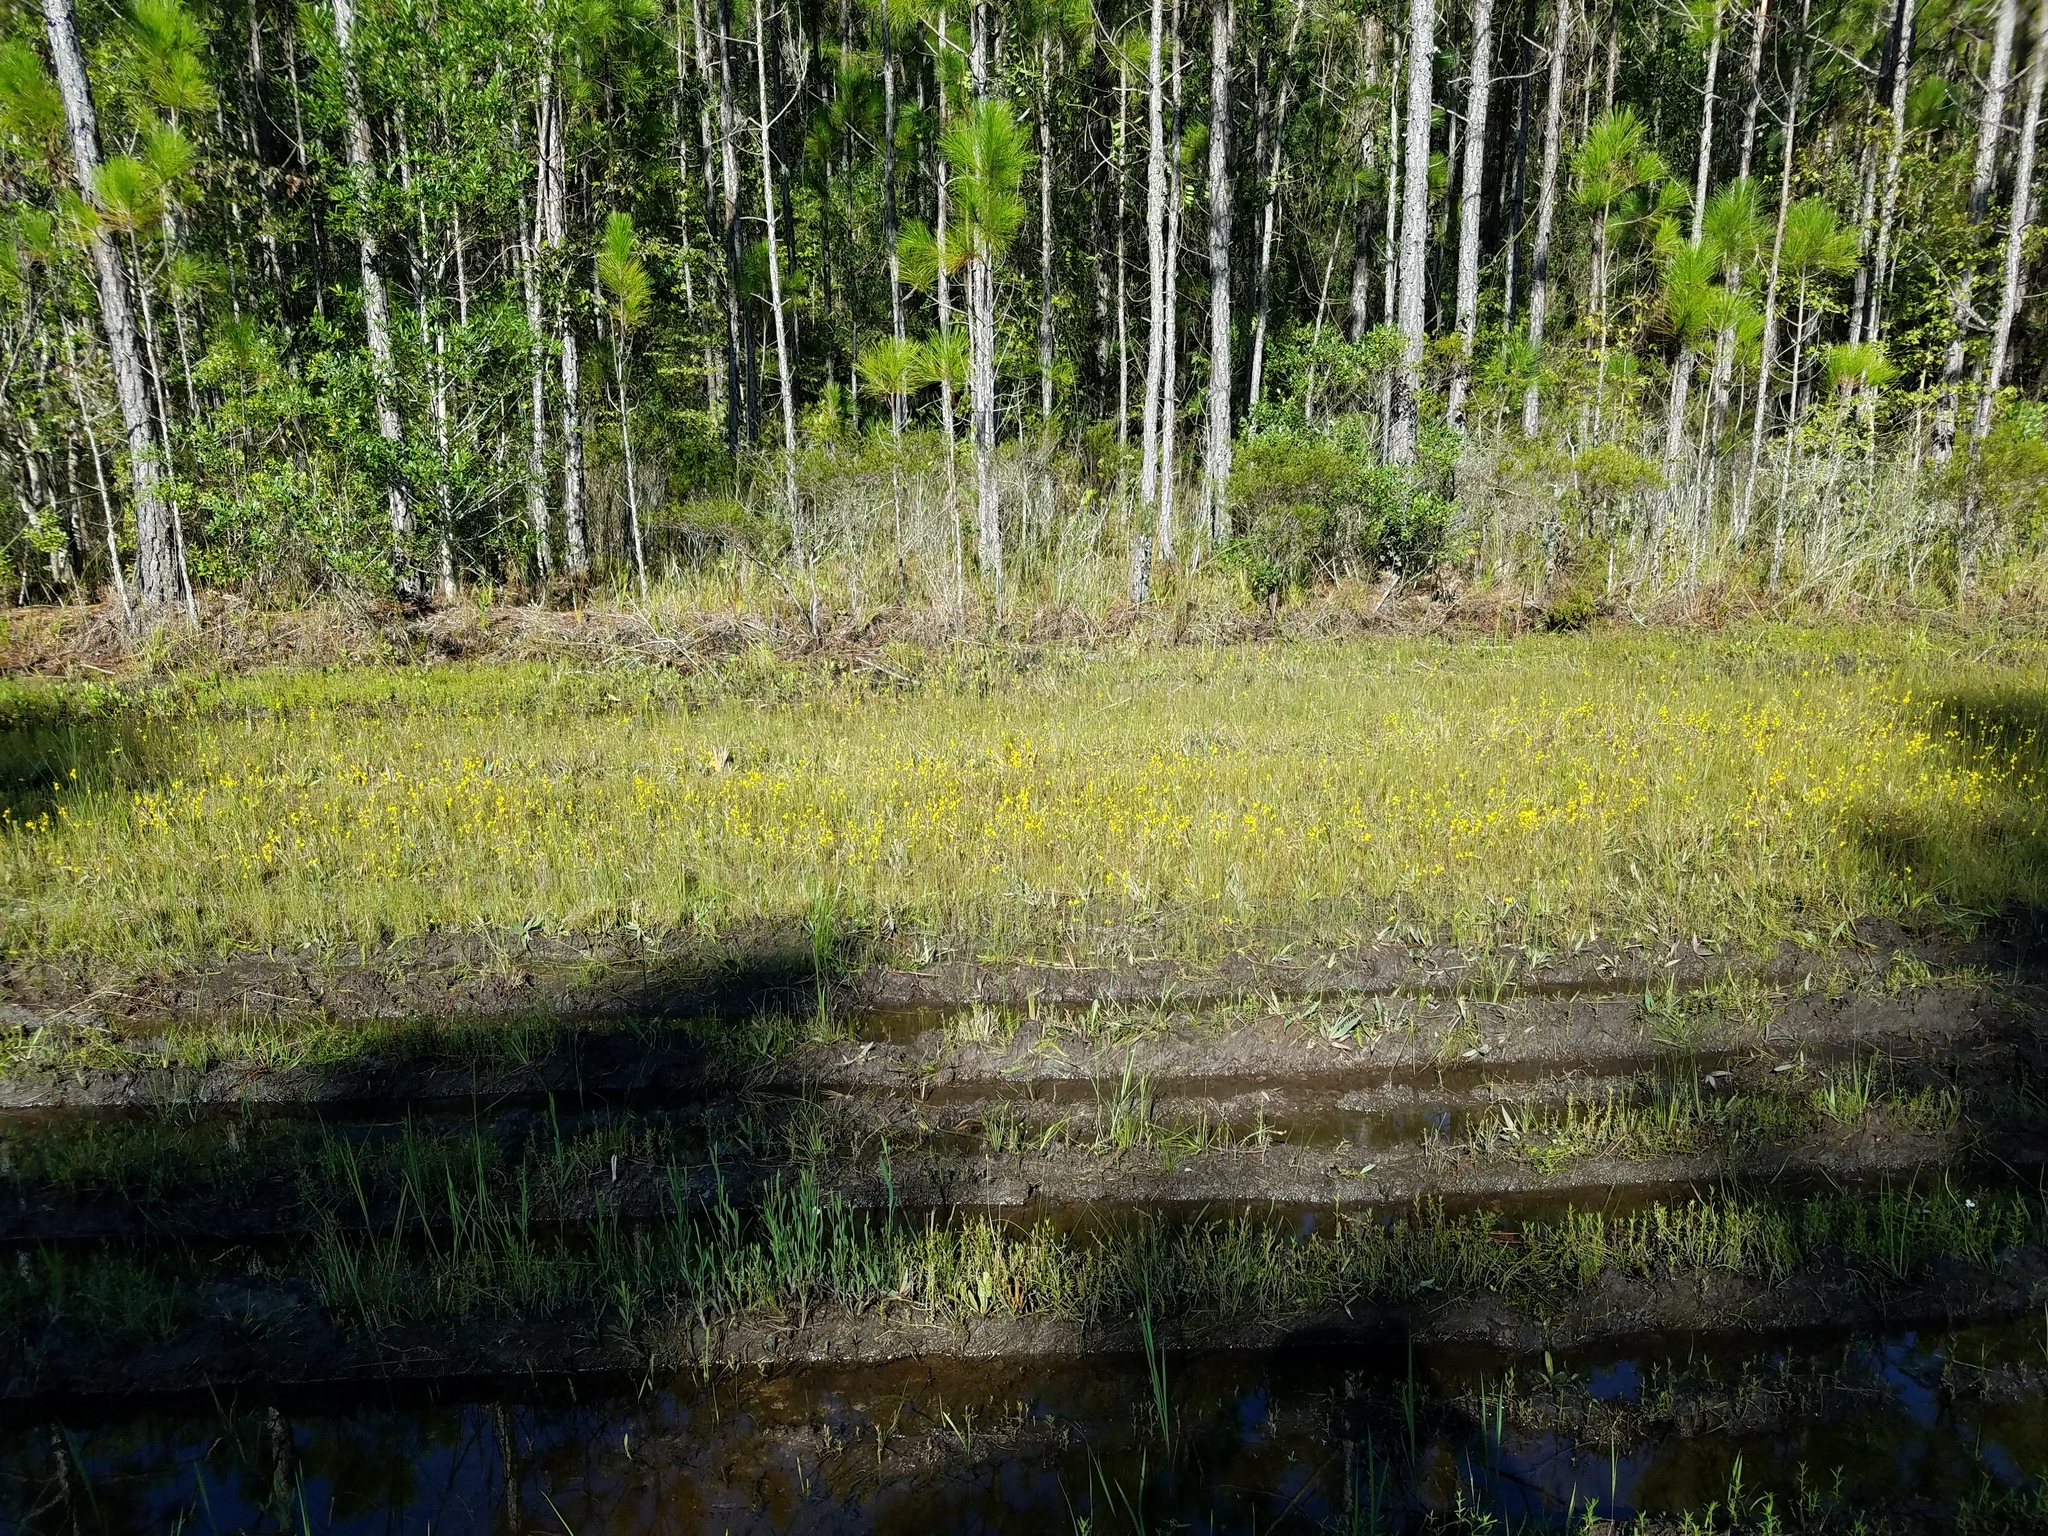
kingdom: Plantae
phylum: Tracheophyta
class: Magnoliopsida
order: Lamiales
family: Lentibulariaceae
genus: Utricularia
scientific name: Utricularia juncea
